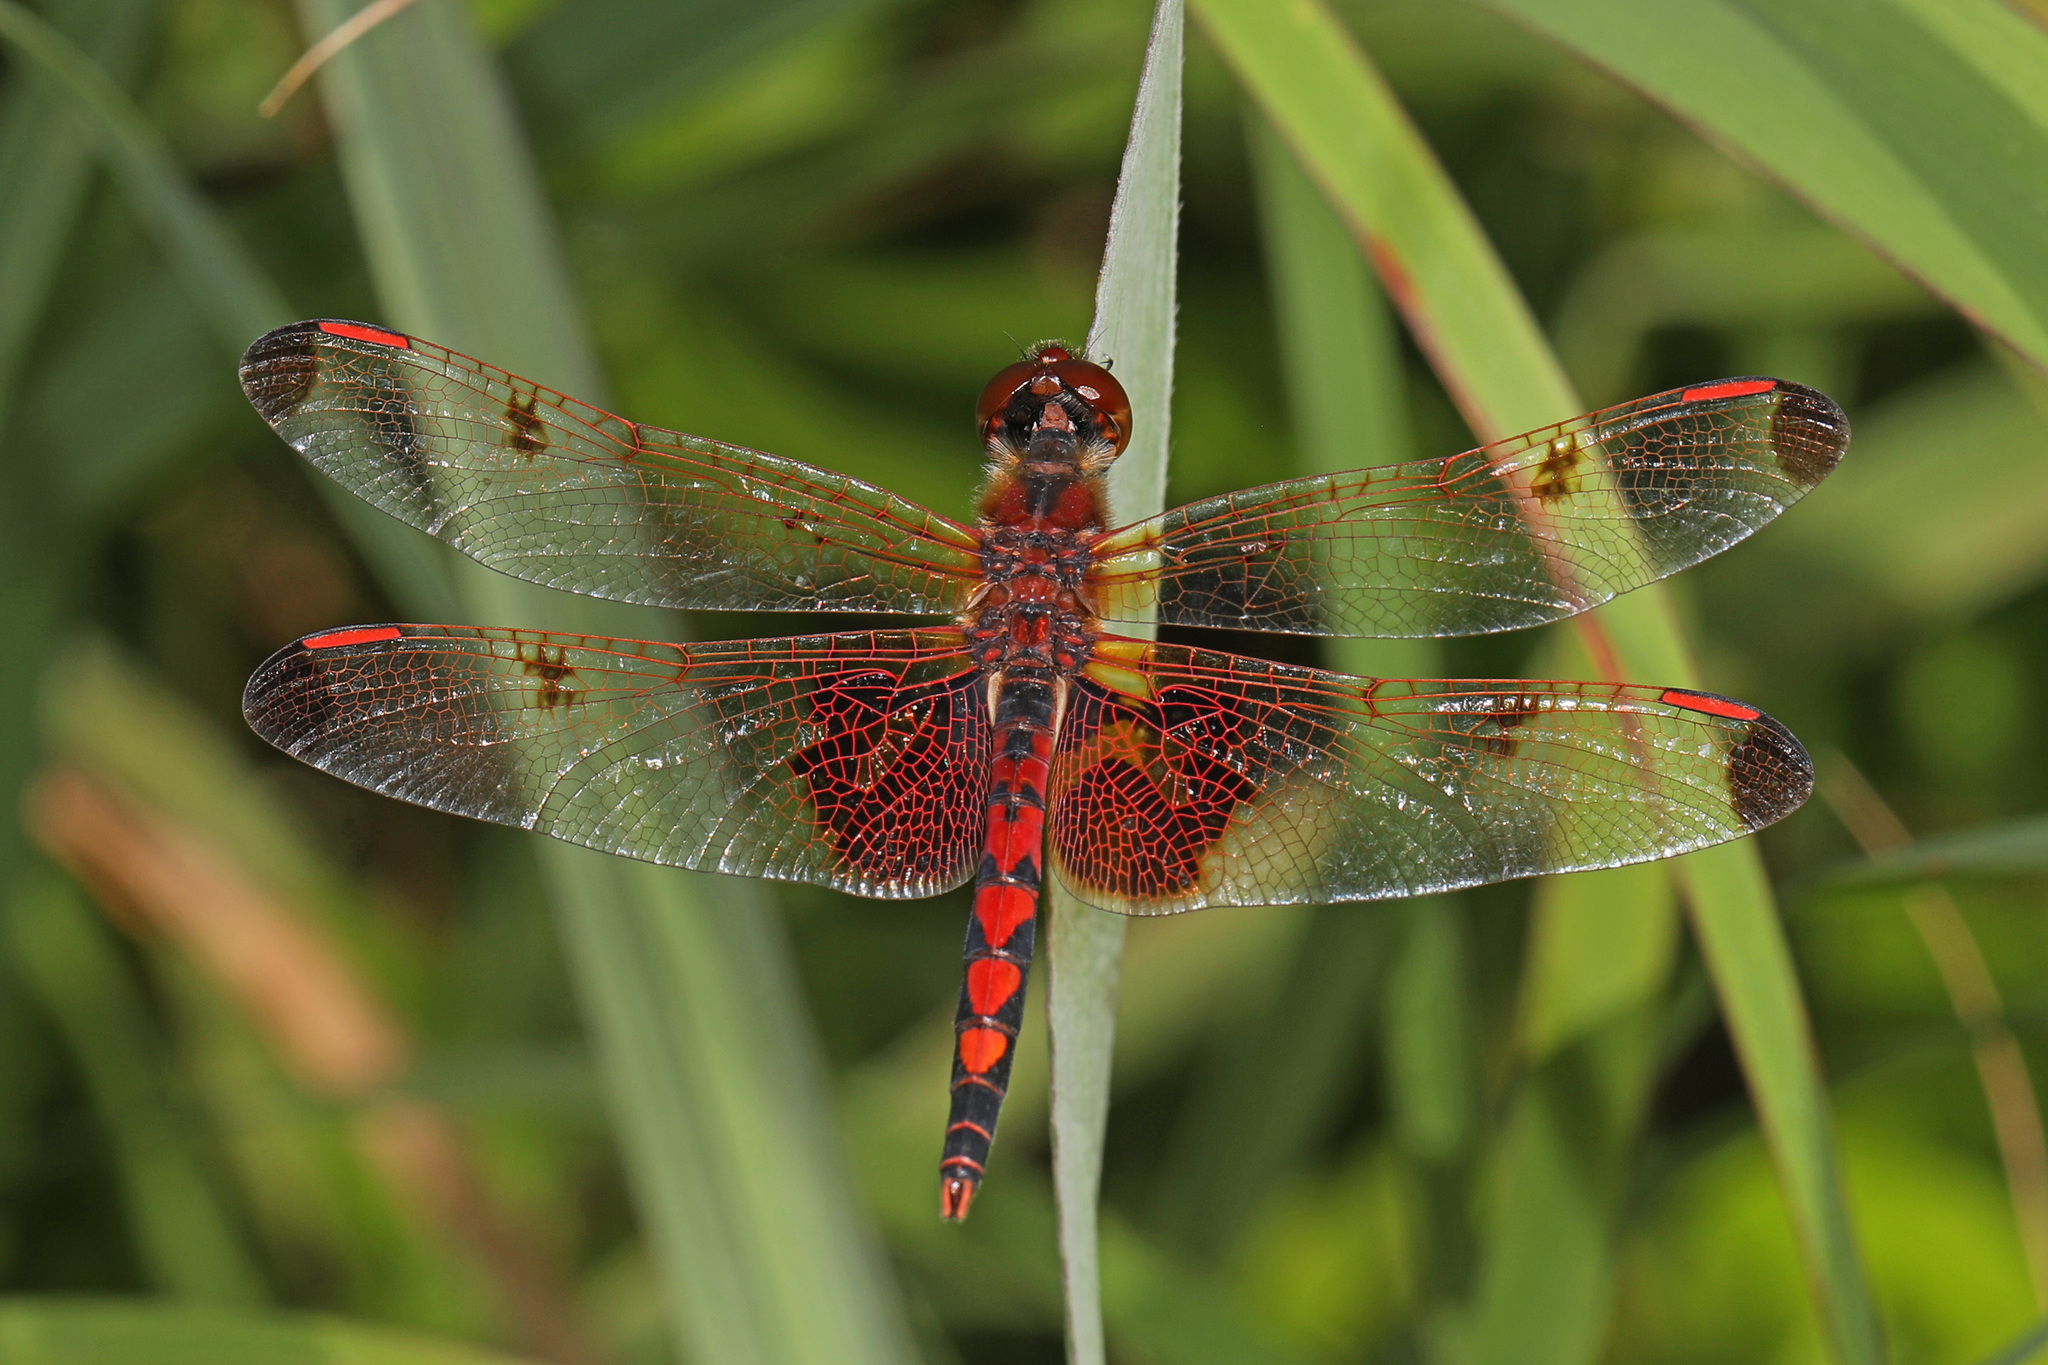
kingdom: Animalia
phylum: Arthropoda
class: Insecta
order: Odonata
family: Libellulidae
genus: Celithemis
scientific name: Celithemis elisa
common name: Calico pennant
